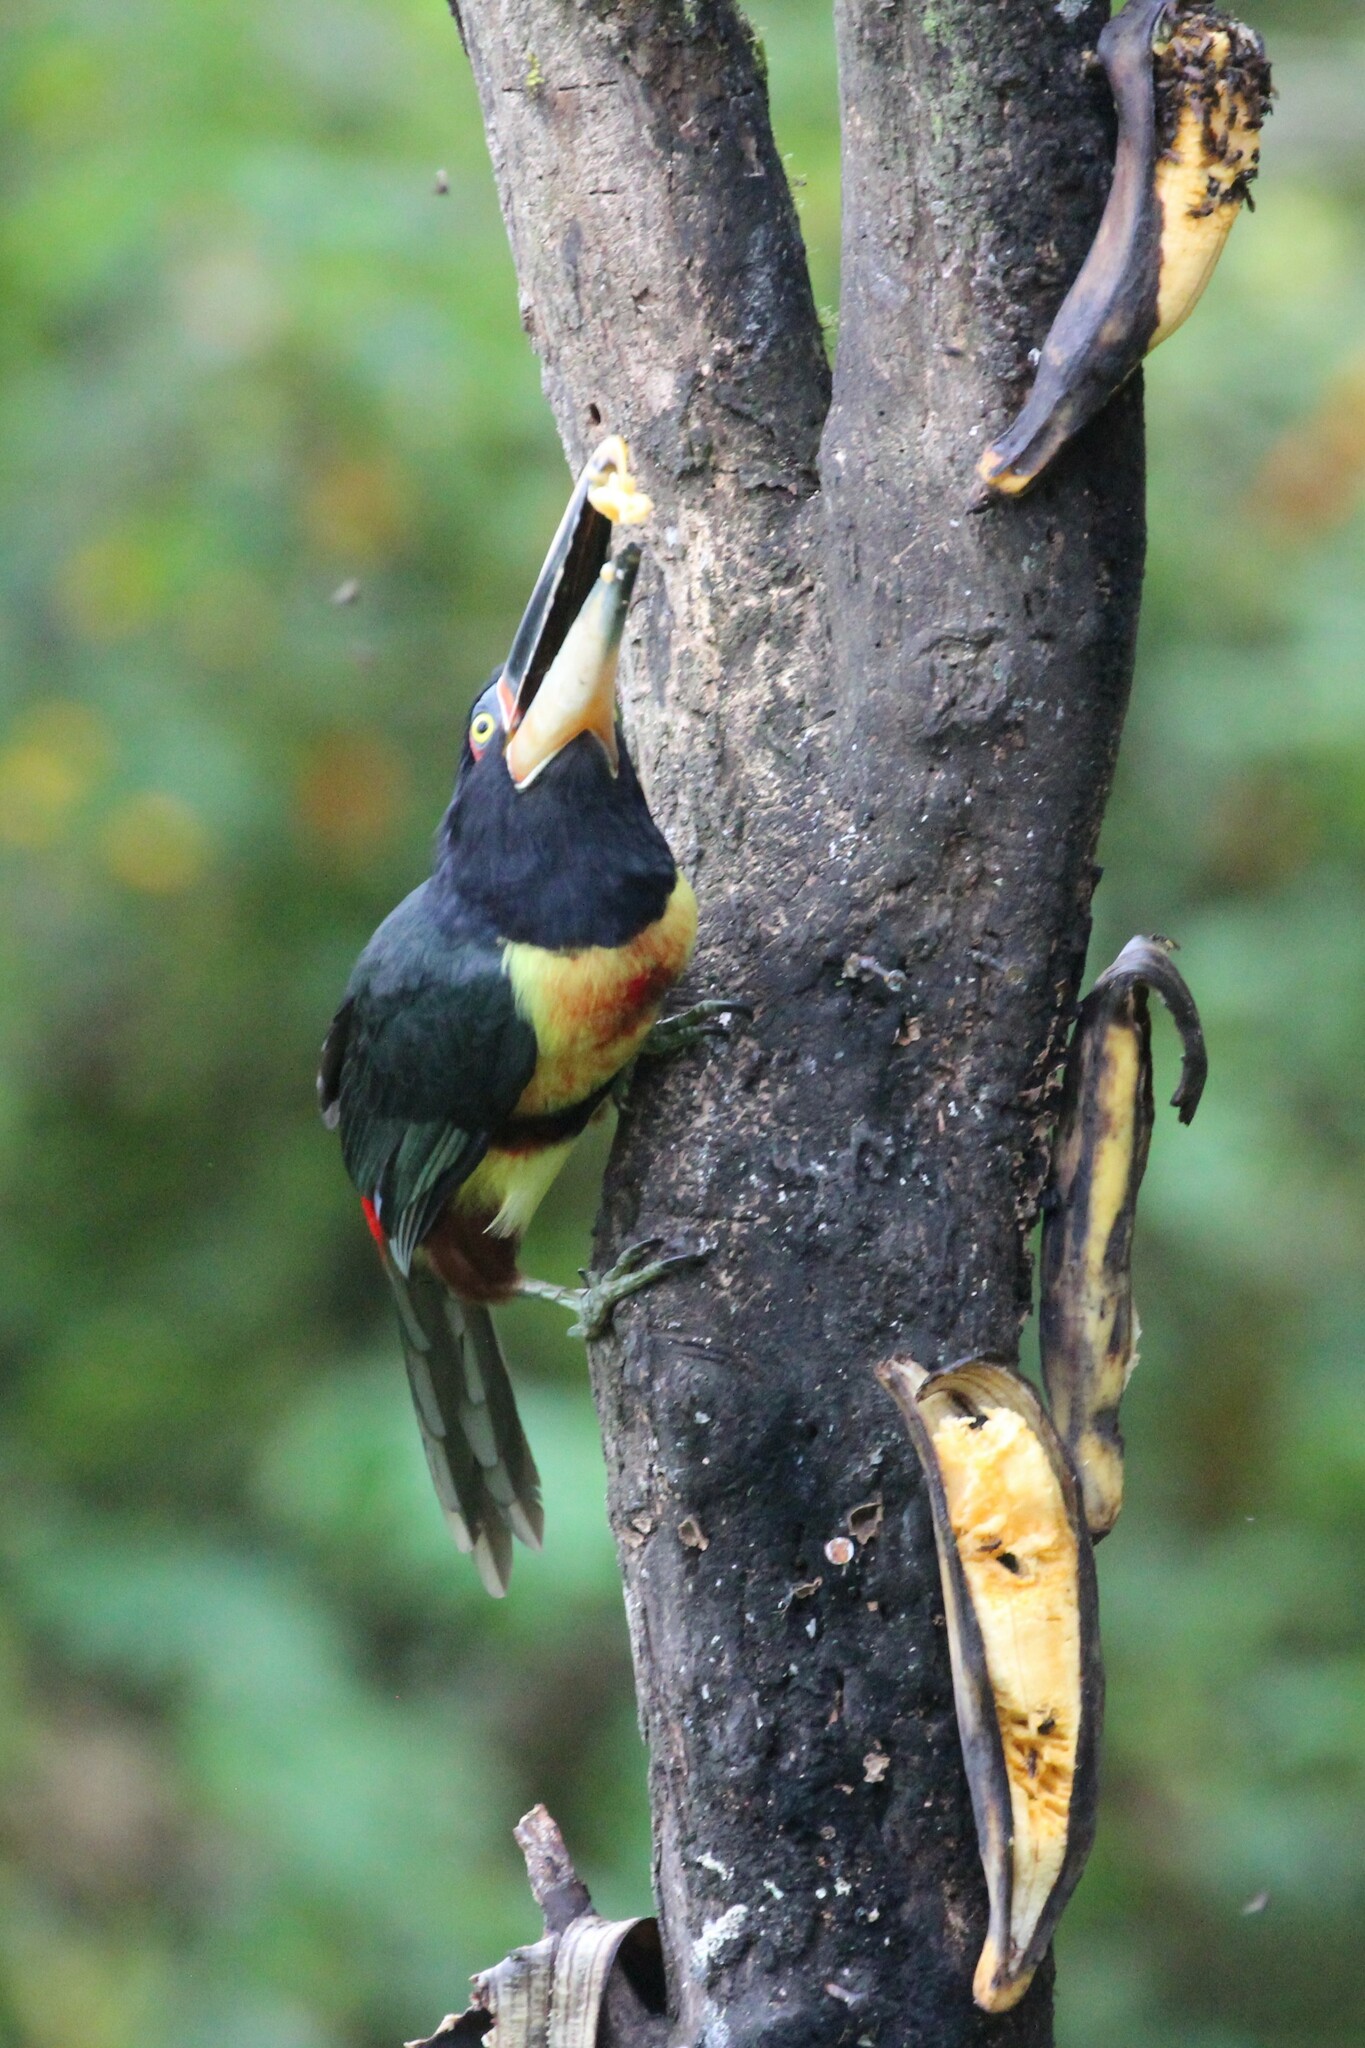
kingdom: Animalia
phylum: Chordata
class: Aves
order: Piciformes
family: Ramphastidae
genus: Pteroglossus
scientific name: Pteroglossus torquatus
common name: Collared aracari
